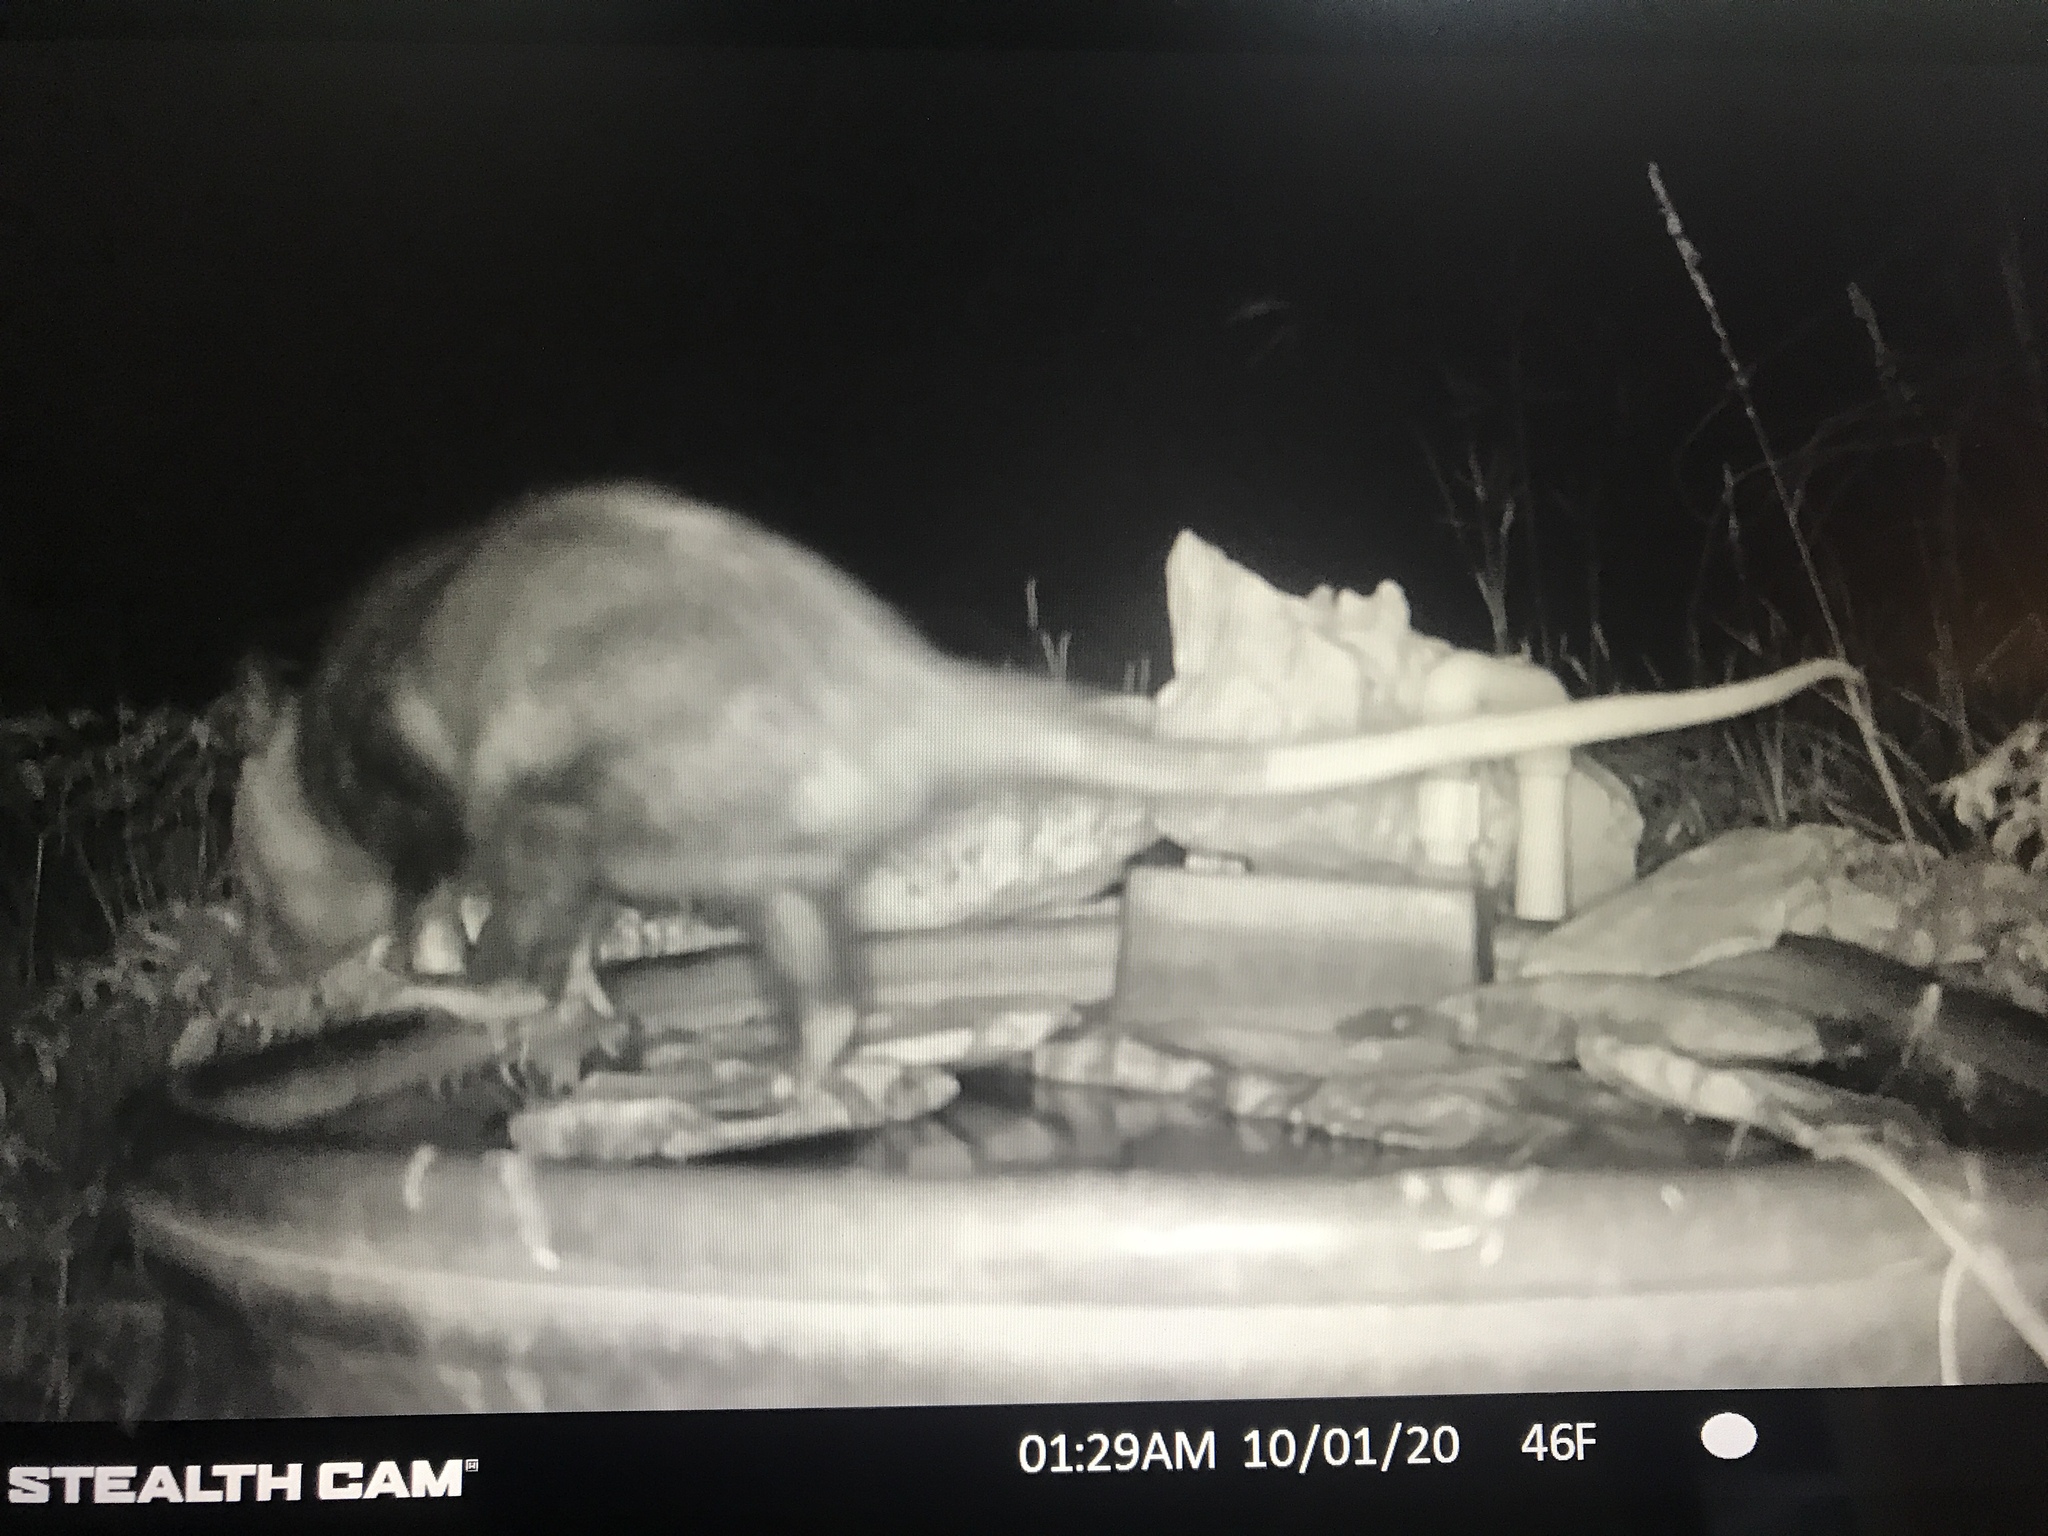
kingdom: Animalia
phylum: Chordata
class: Mammalia
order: Didelphimorphia
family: Didelphidae
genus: Didelphis
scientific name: Didelphis virginiana
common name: Virginia opossum
